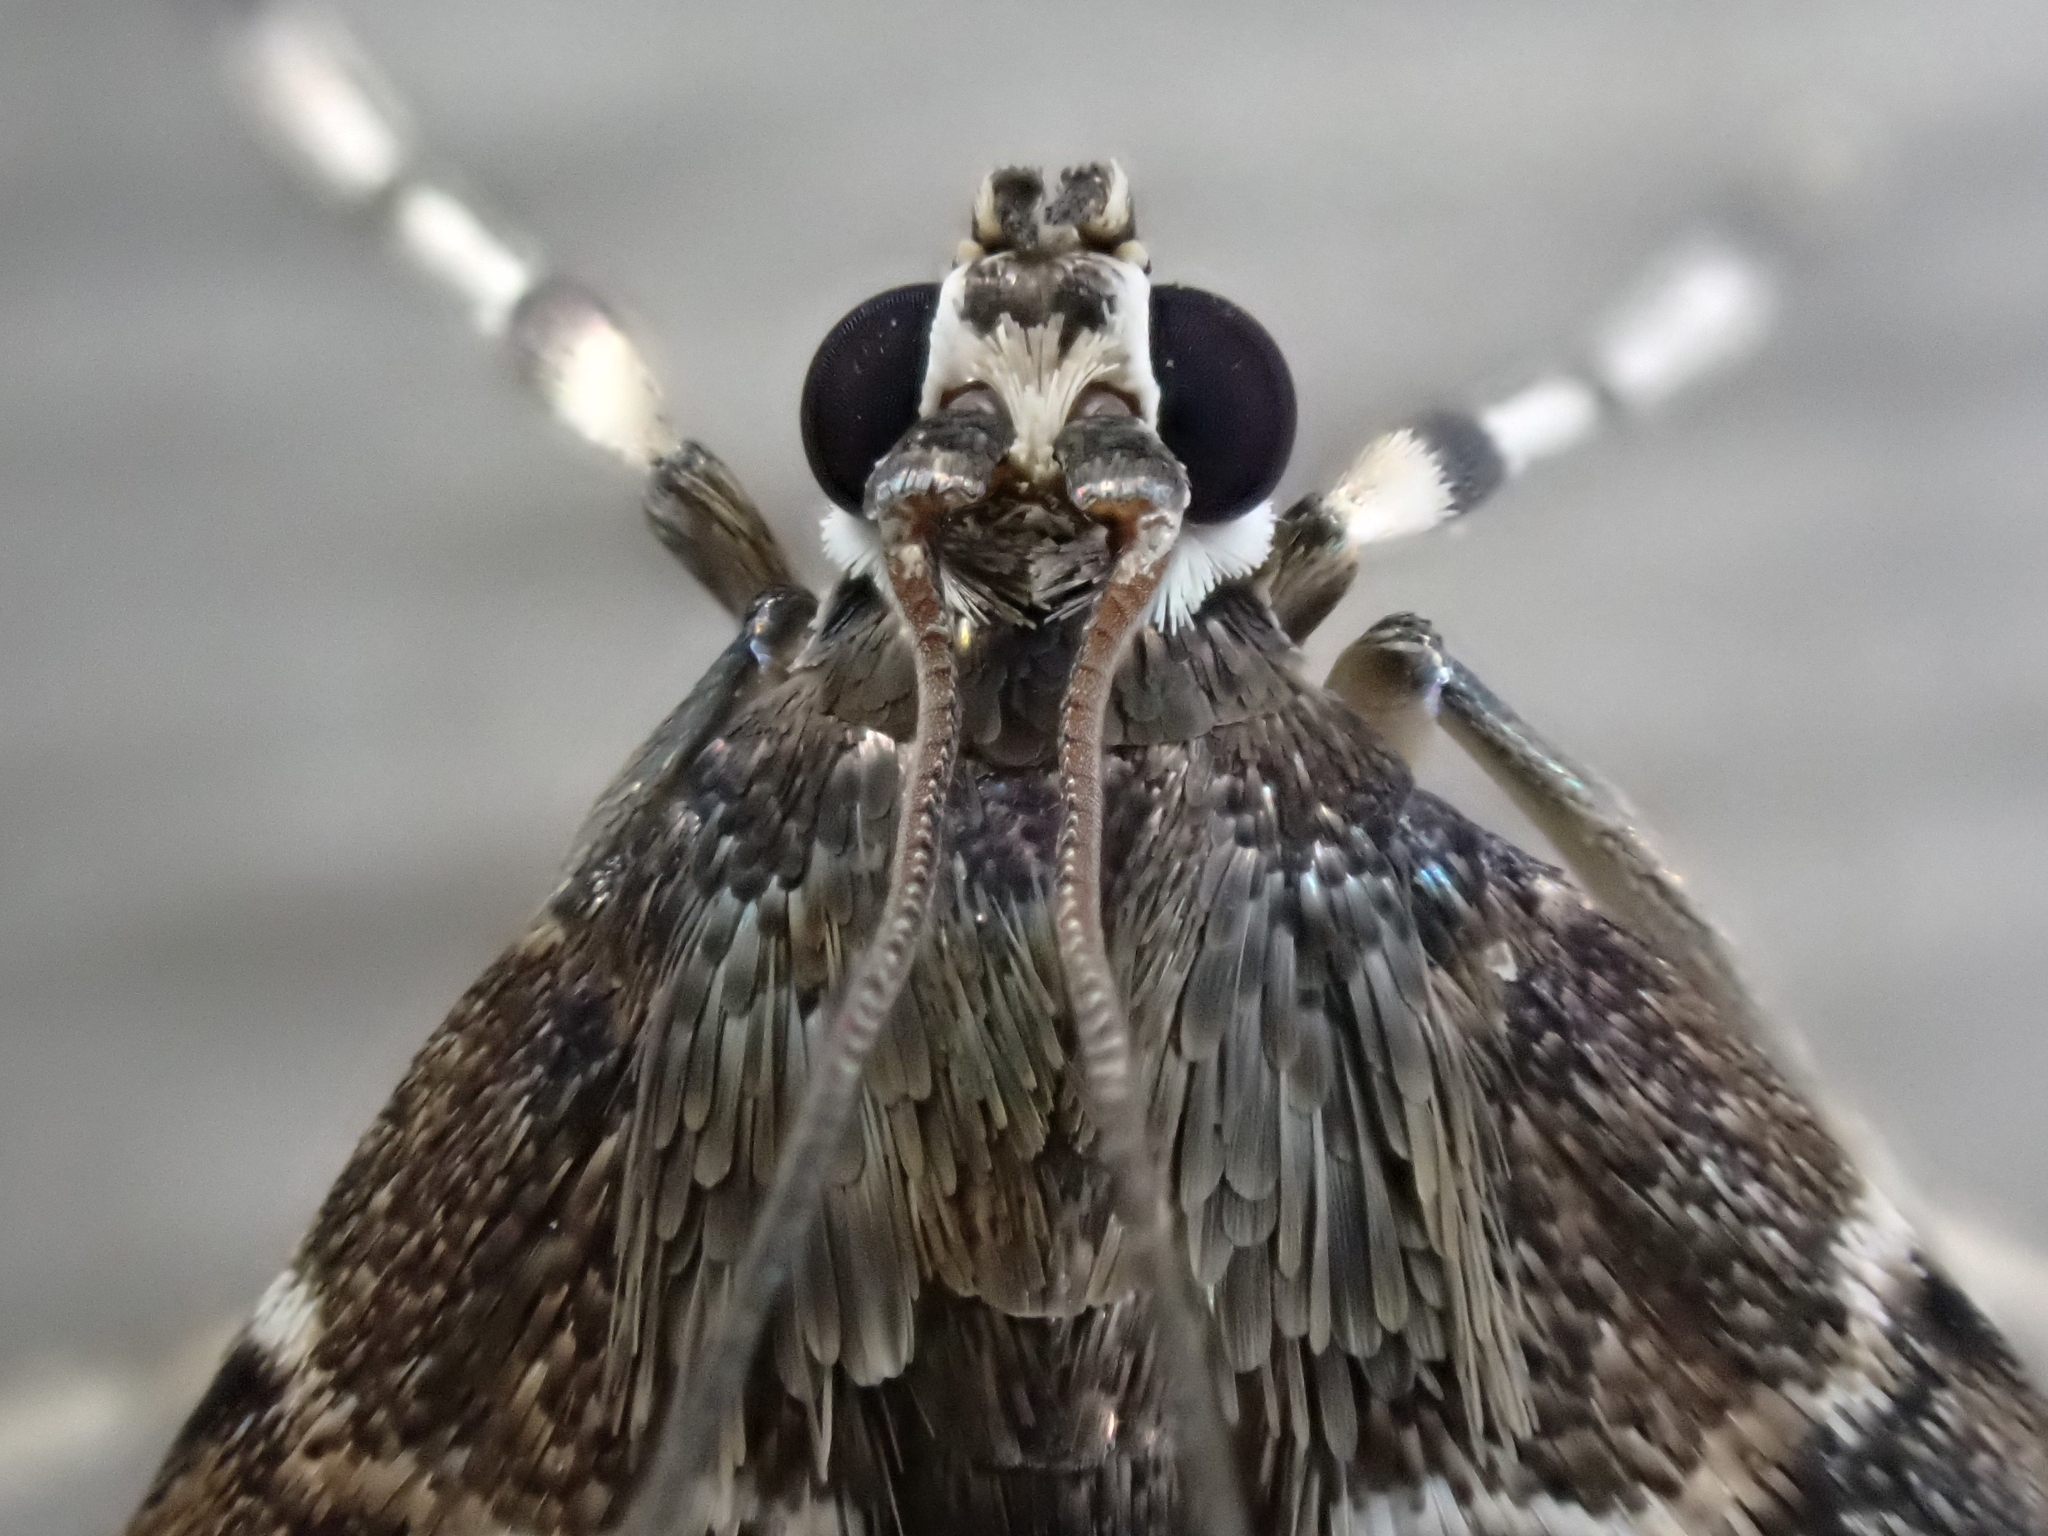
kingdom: Animalia
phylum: Arthropoda
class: Insecta
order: Lepidoptera
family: Crambidae
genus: Hymenia
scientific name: Hymenia perspectalis
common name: Spotted beet webworm
